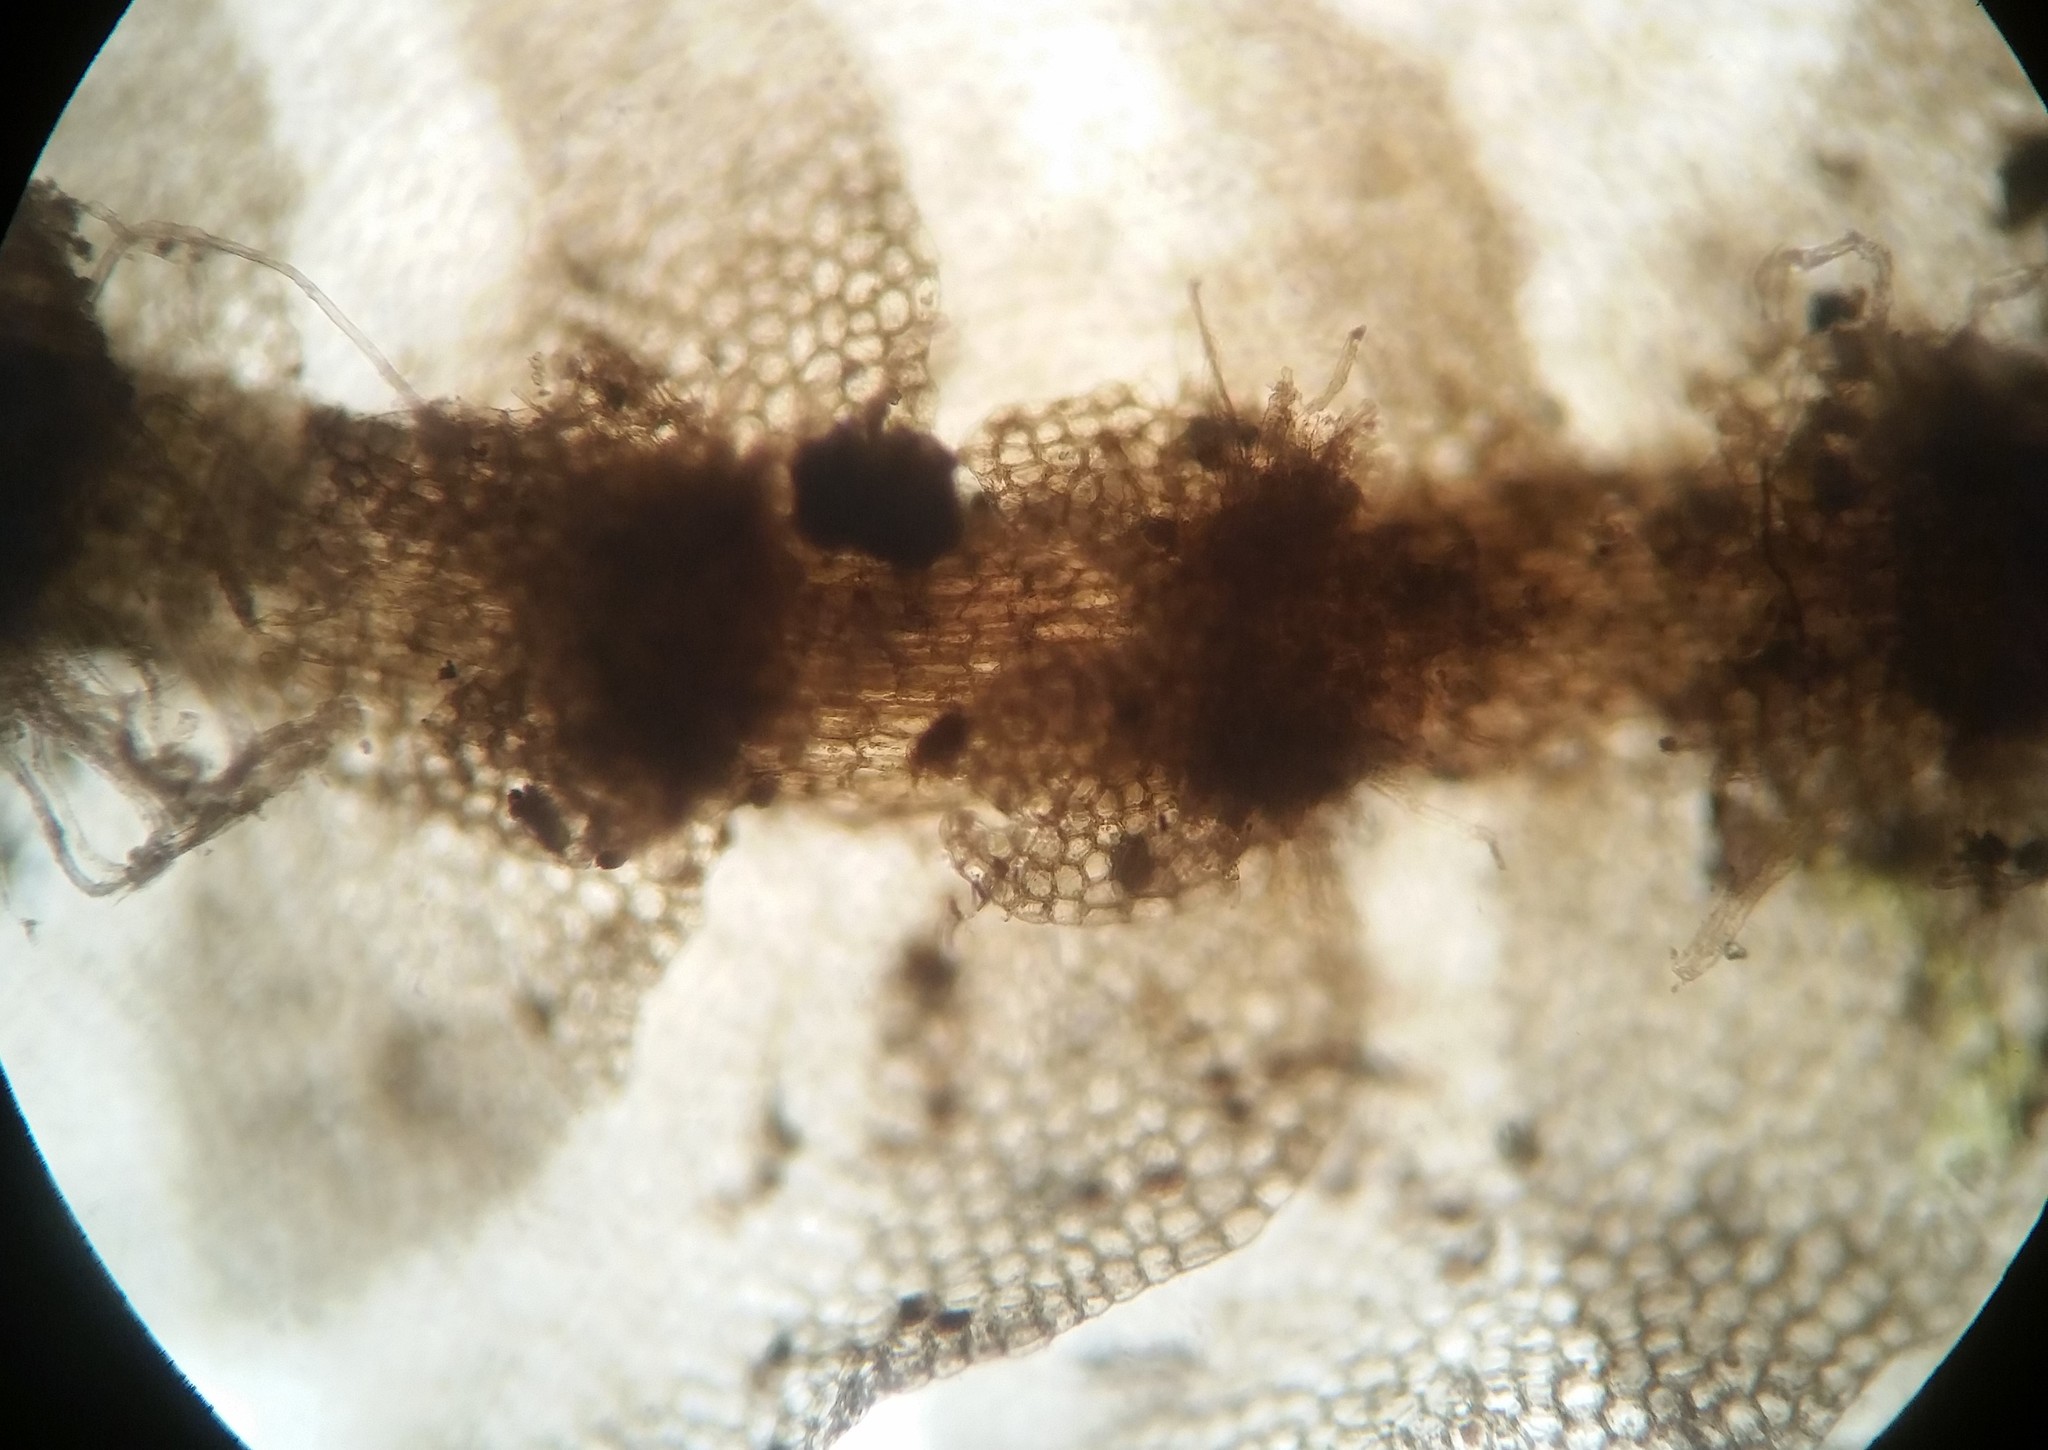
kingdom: Plantae
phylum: Marchantiophyta
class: Jungermanniopsida
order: Jungermanniales
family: Calypogeiaceae
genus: Calypogeia
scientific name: Calypogeia neogaea
